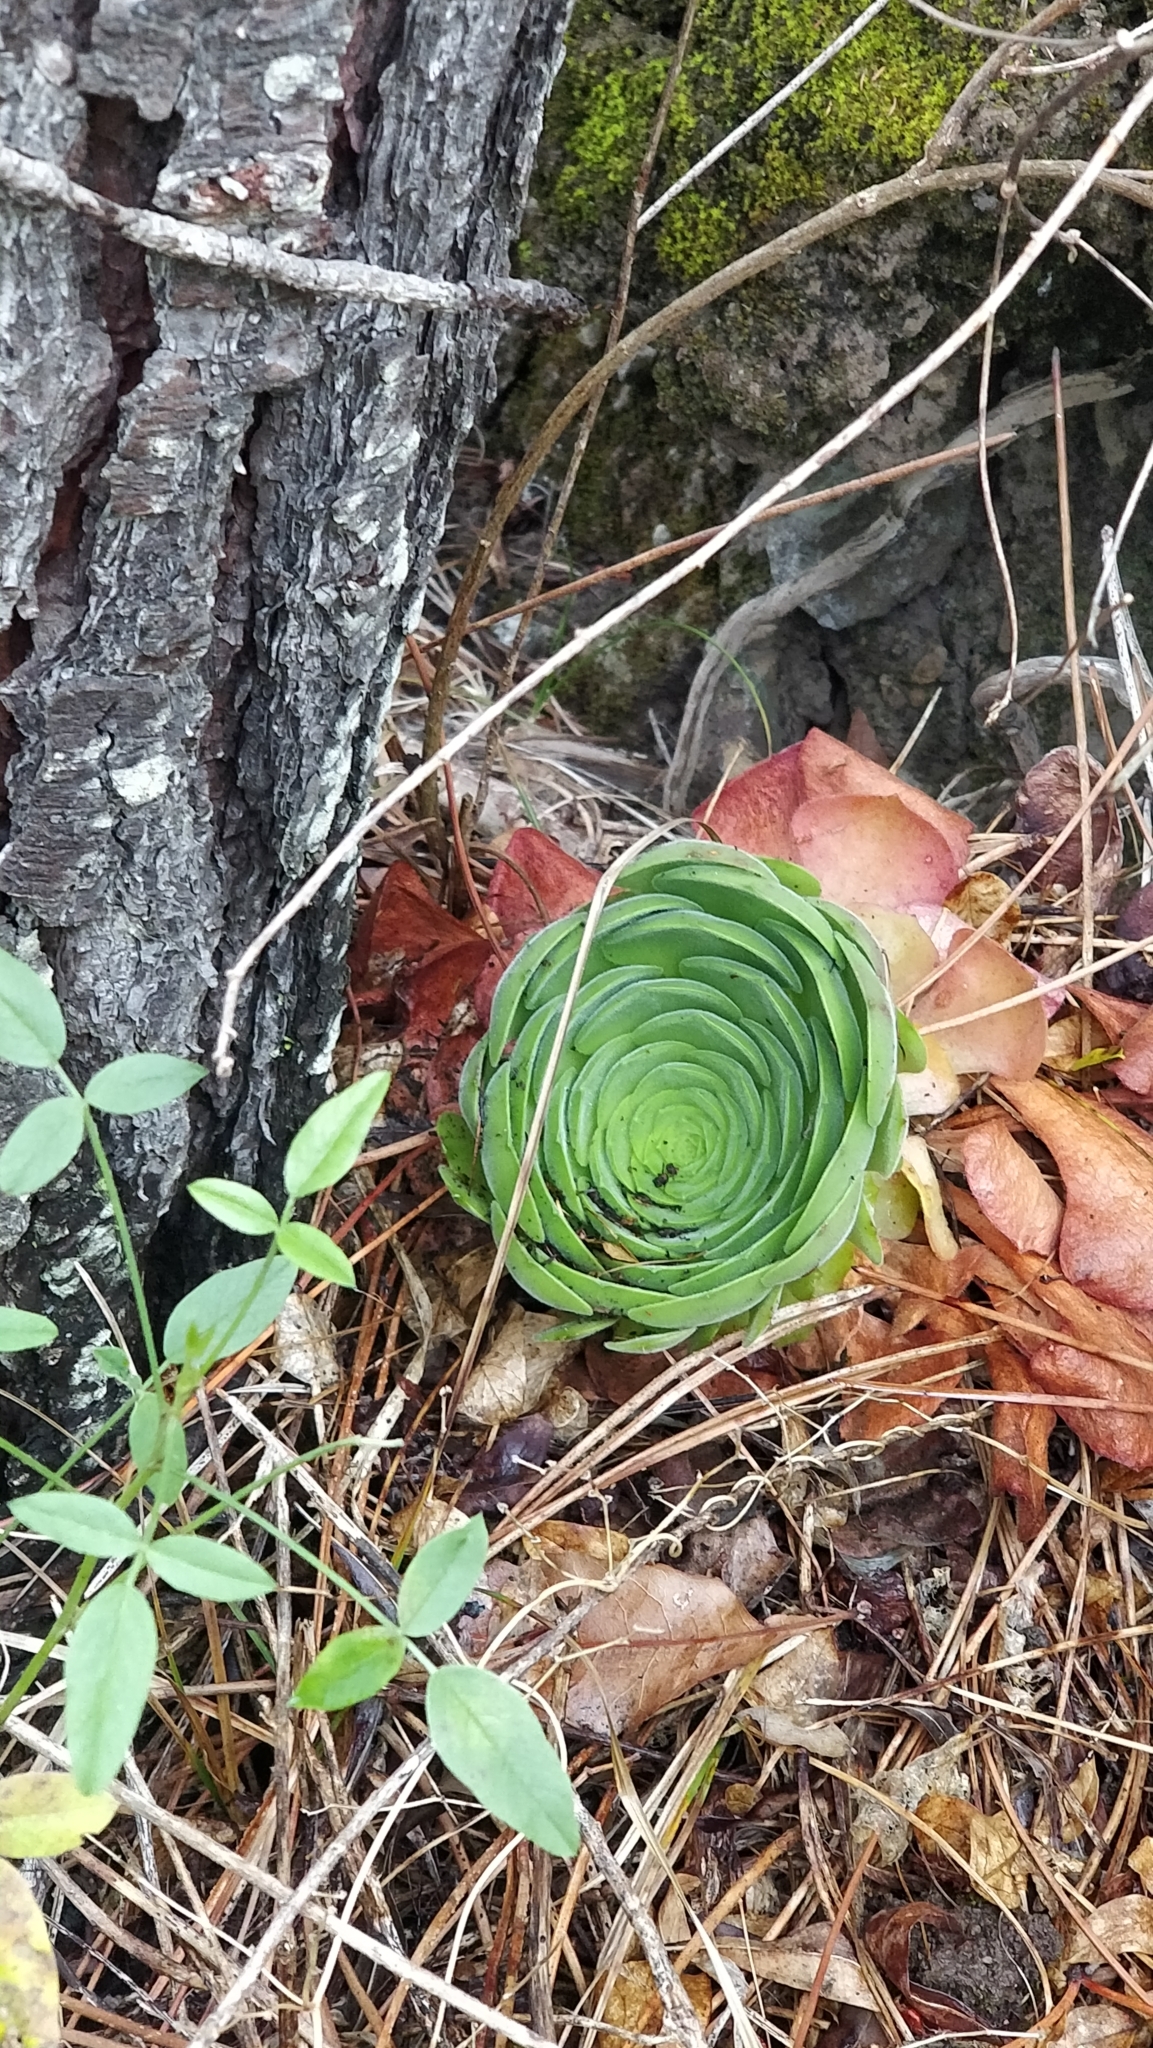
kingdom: Plantae
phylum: Tracheophyta
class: Magnoliopsida
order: Saxifragales
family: Crassulaceae
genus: Aeonium
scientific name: Aeonium glandulosum
